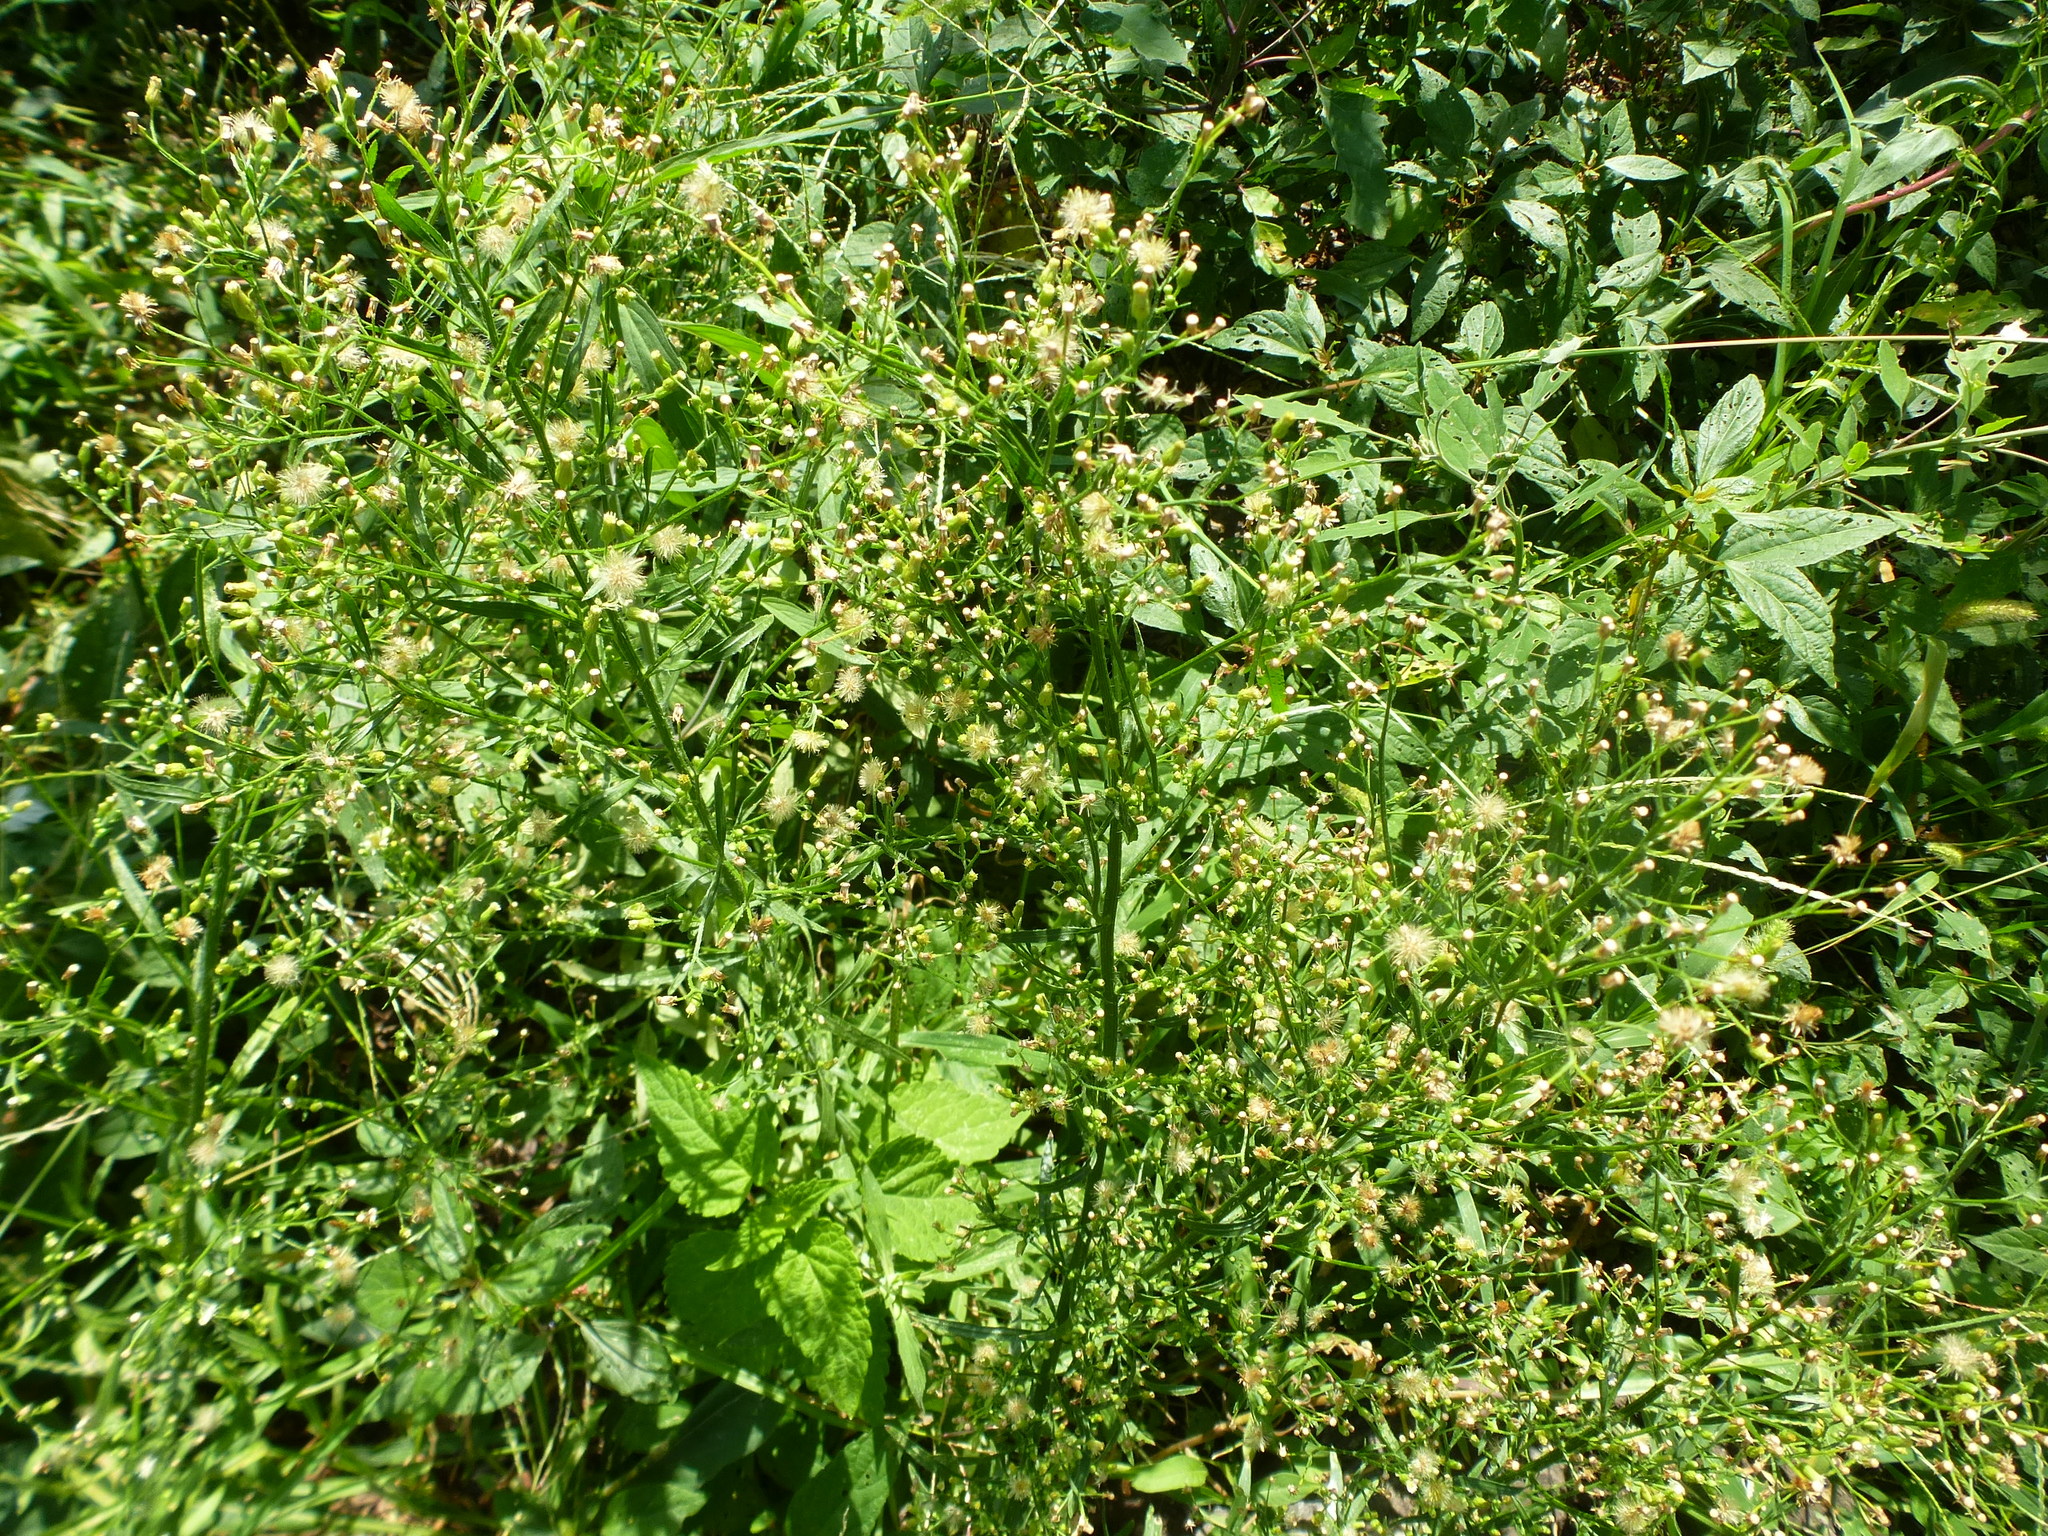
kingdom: Plantae
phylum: Tracheophyta
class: Magnoliopsida
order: Asterales
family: Asteraceae
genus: Erigeron
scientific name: Erigeron canadensis
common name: Canadian fleabane
